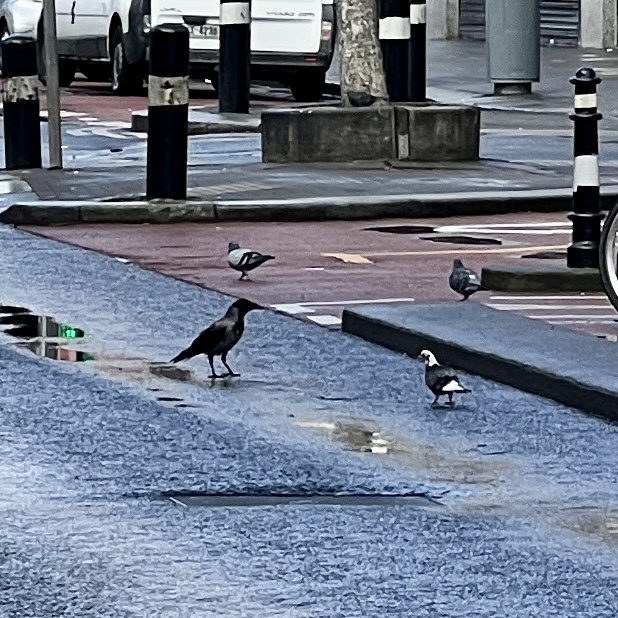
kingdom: Animalia
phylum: Chordata
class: Aves
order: Passeriformes
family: Corvidae
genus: Corvus
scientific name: Corvus cornix
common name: Hooded crow
